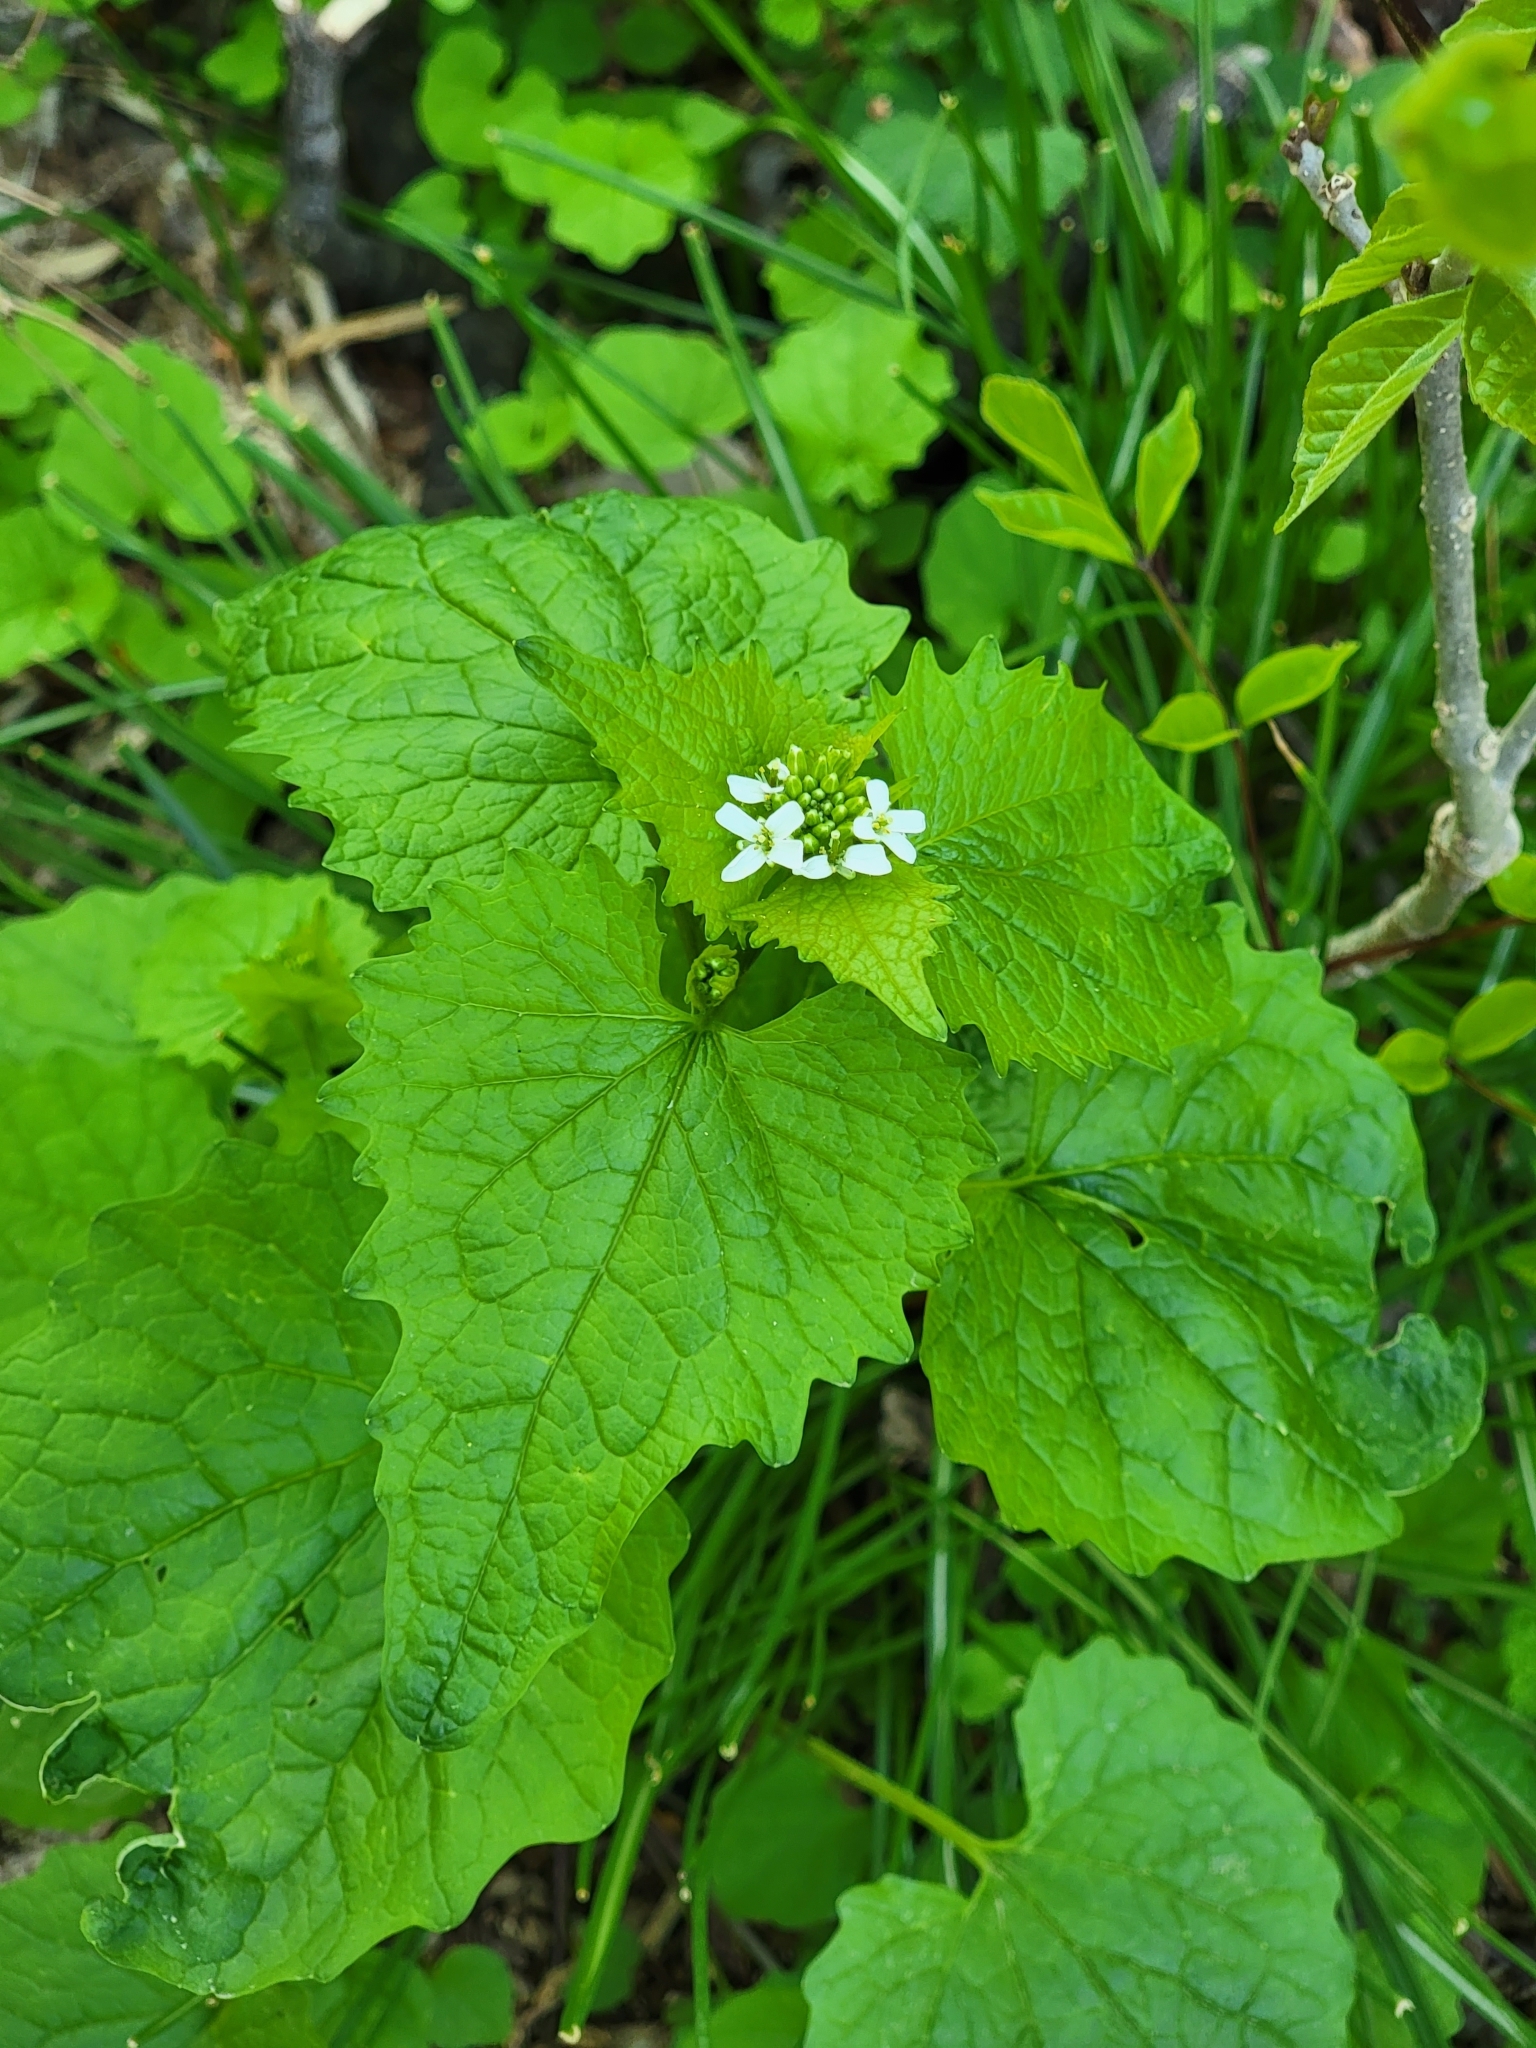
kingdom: Plantae
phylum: Tracheophyta
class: Magnoliopsida
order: Brassicales
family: Brassicaceae
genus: Alliaria
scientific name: Alliaria petiolata
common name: Garlic mustard
